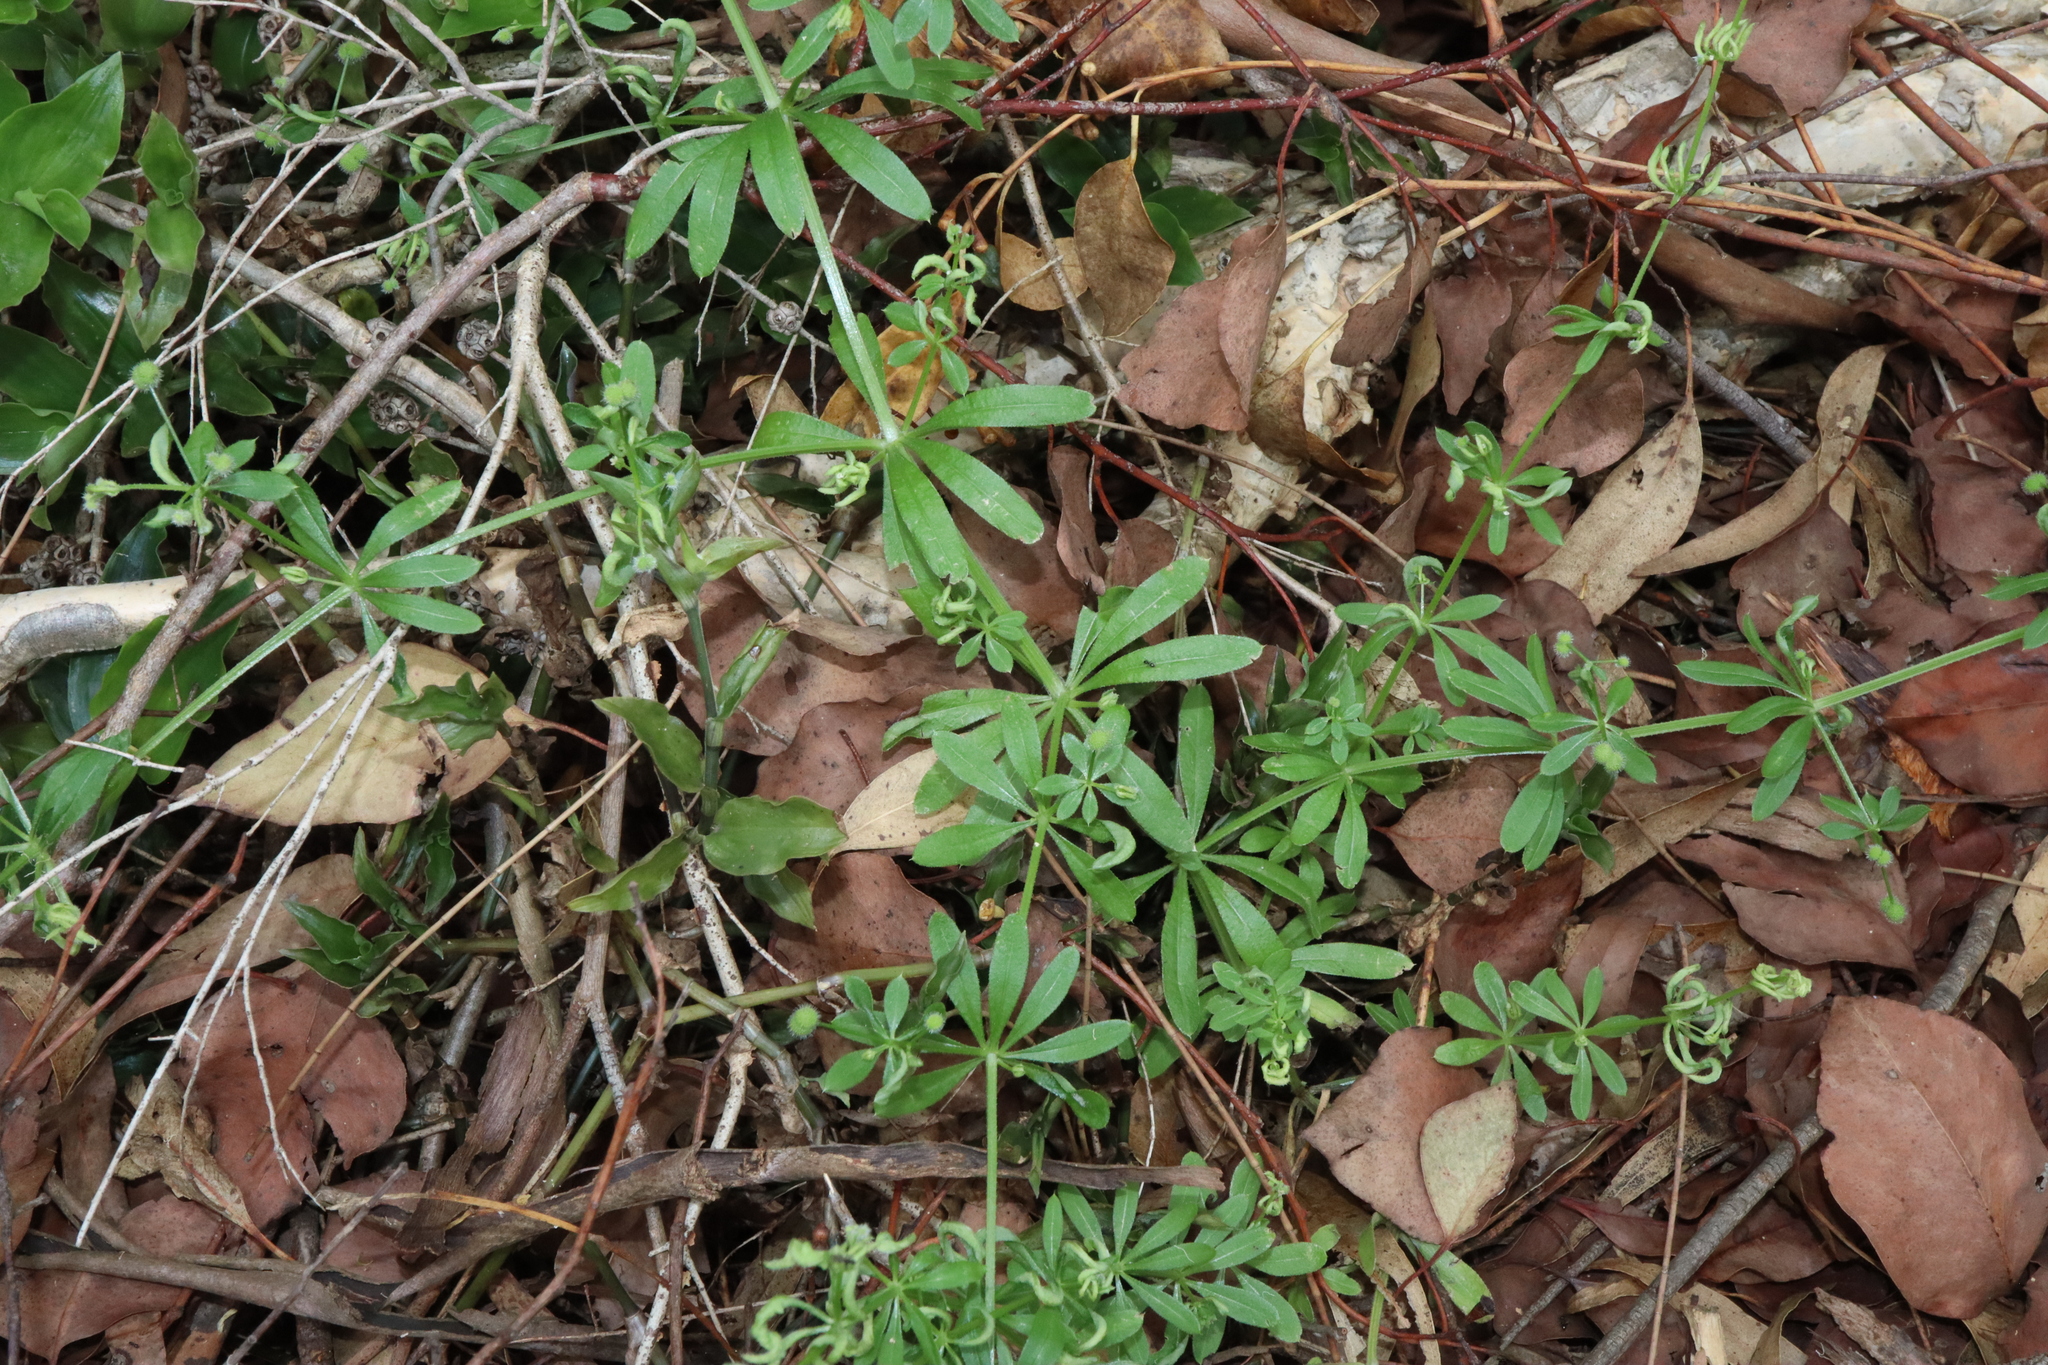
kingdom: Plantae
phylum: Tracheophyta
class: Magnoliopsida
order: Gentianales
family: Rubiaceae
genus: Galium
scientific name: Galium aparine
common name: Cleavers
